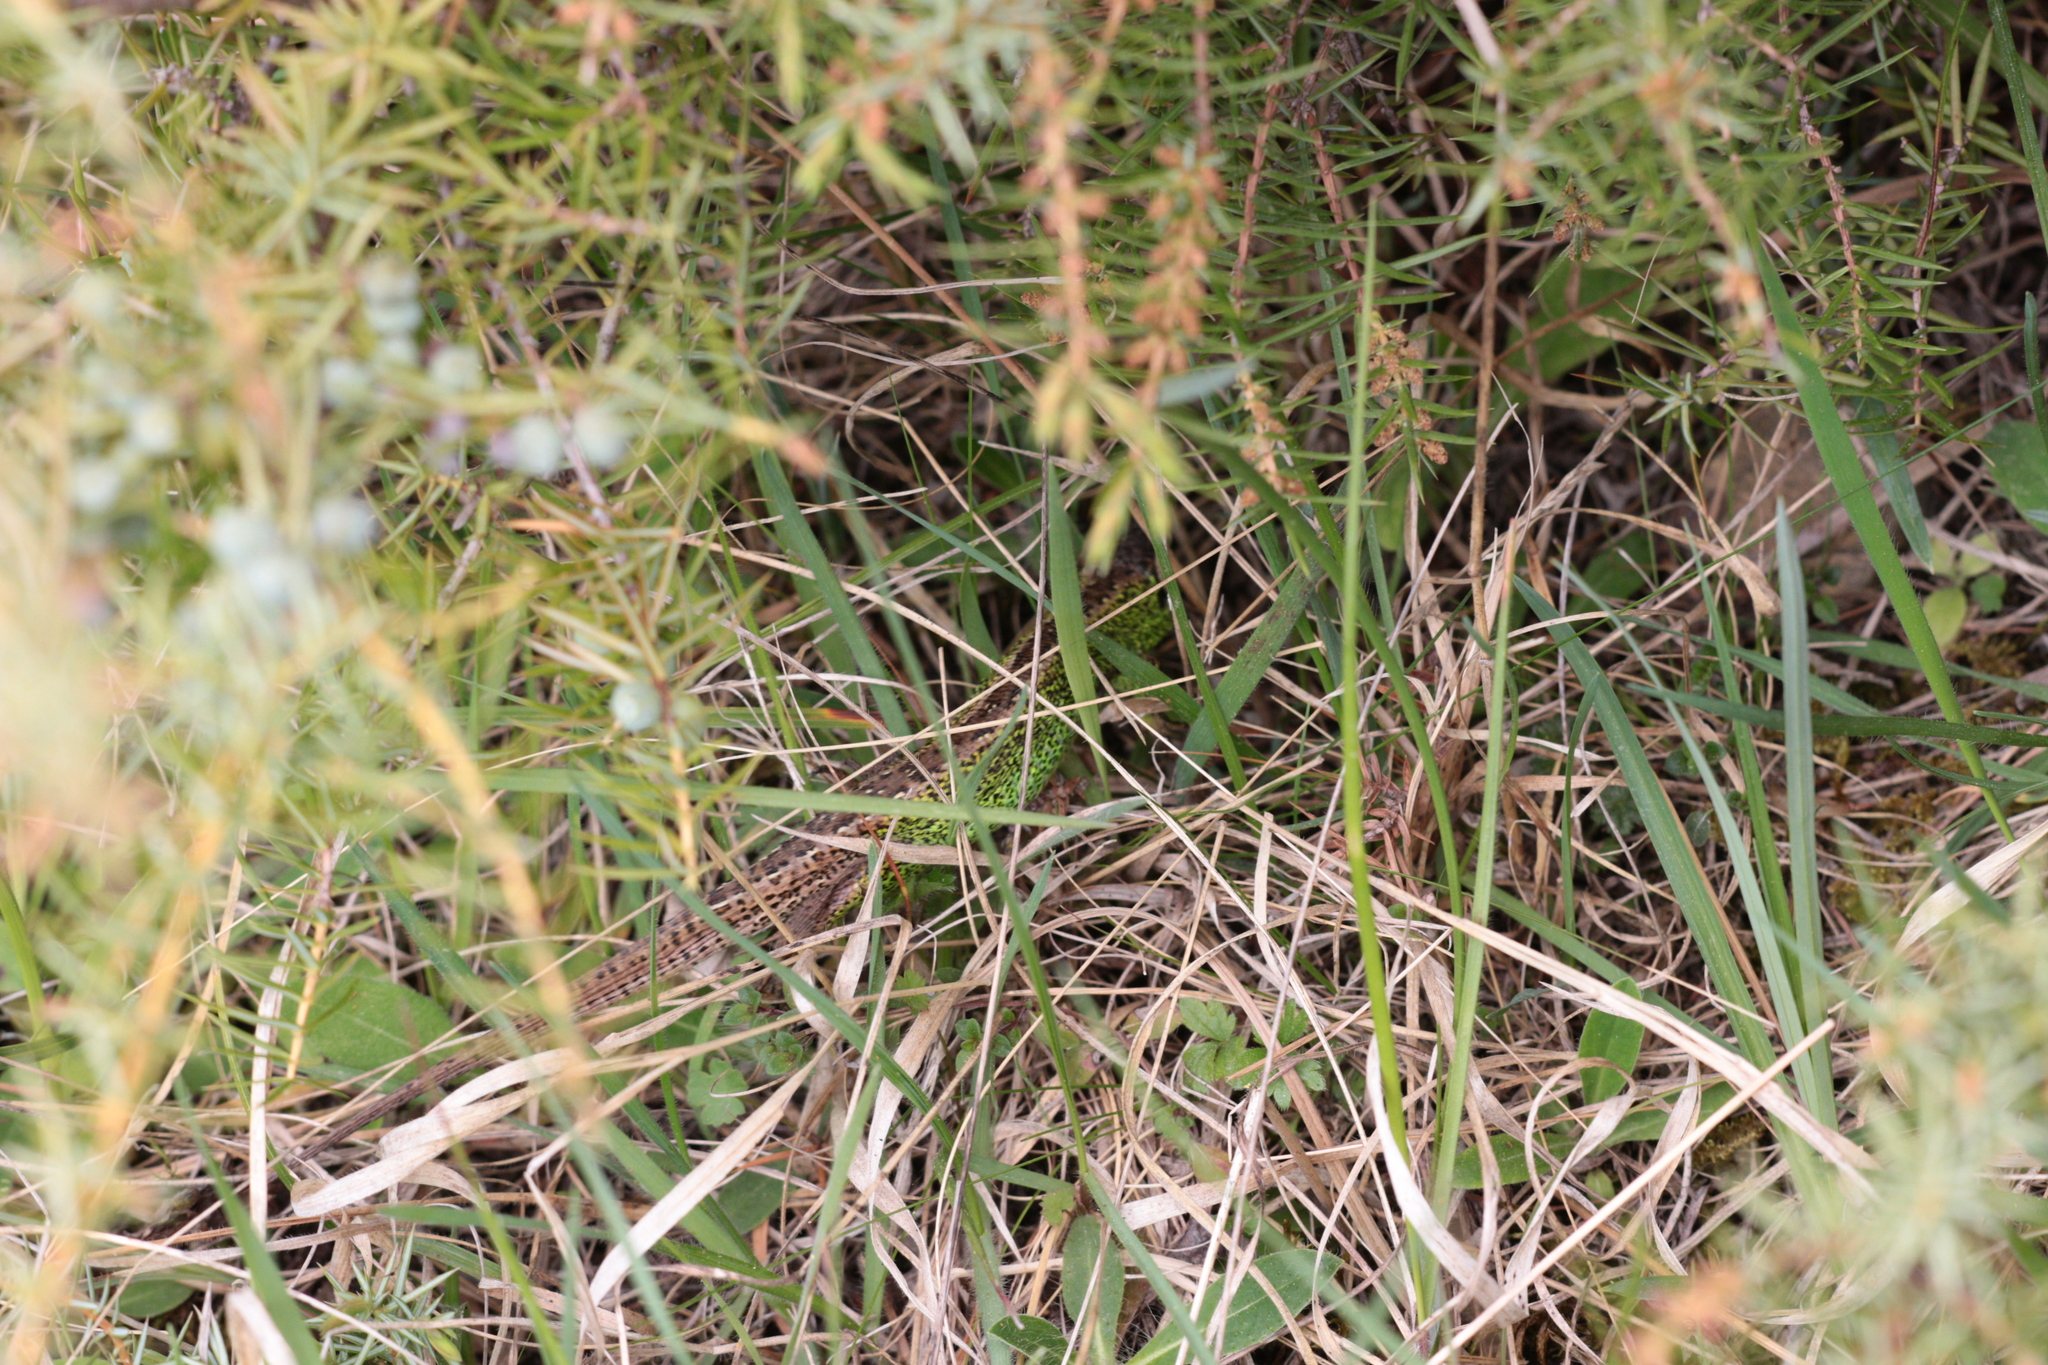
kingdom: Animalia
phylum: Chordata
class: Squamata
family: Lacertidae
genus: Lacerta
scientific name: Lacerta agilis
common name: Sand lizard
